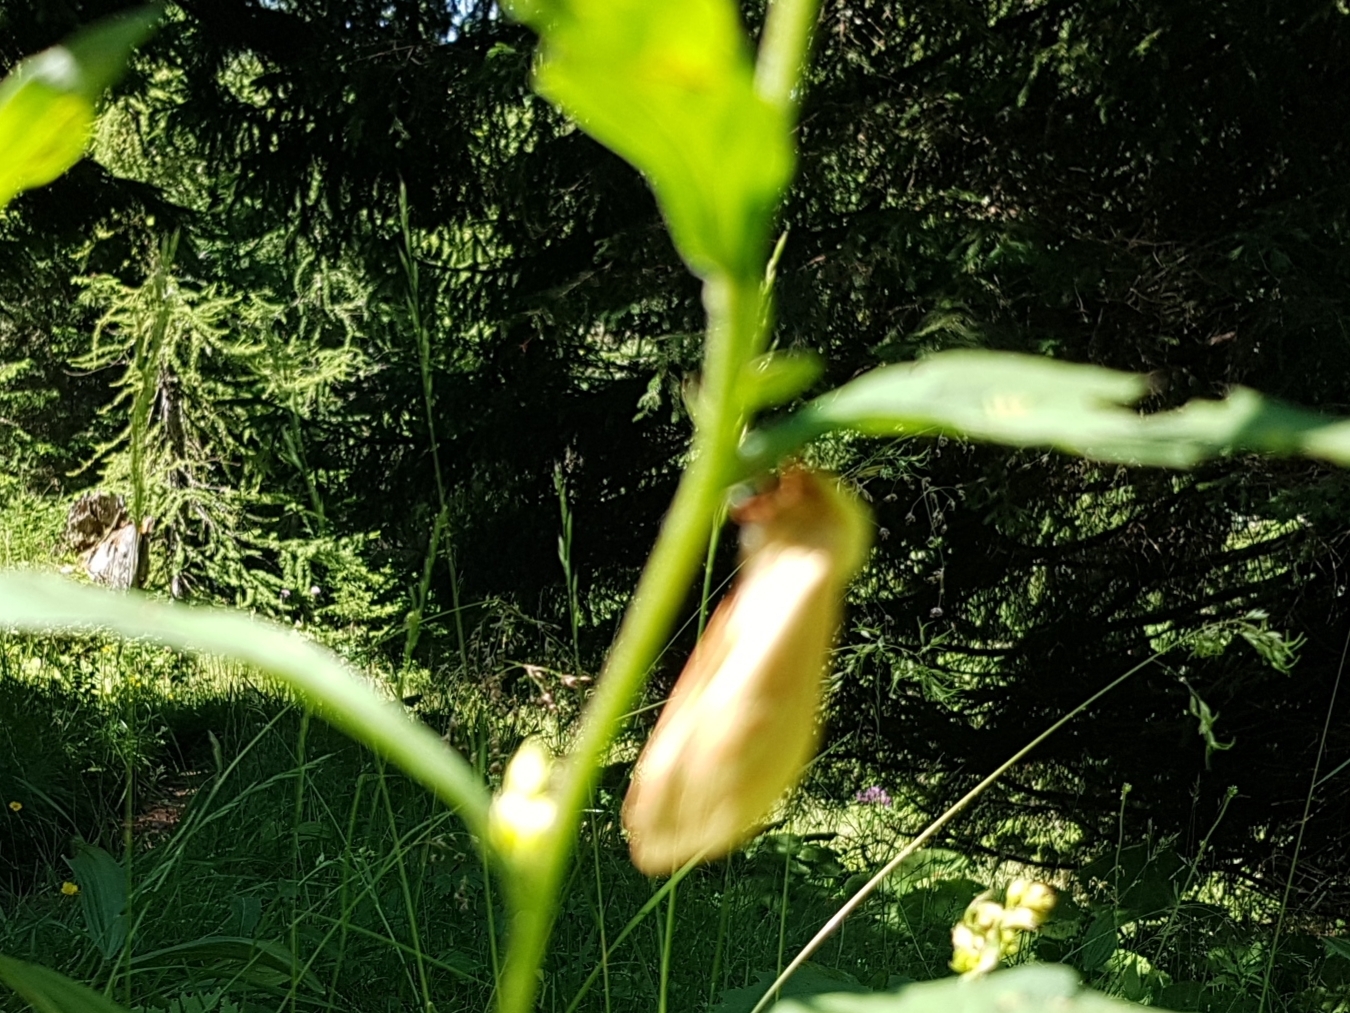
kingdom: Animalia
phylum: Arthropoda
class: Insecta
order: Lepidoptera
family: Hepialidae
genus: Hepialus
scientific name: Hepialus humuli
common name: Ghost moth
